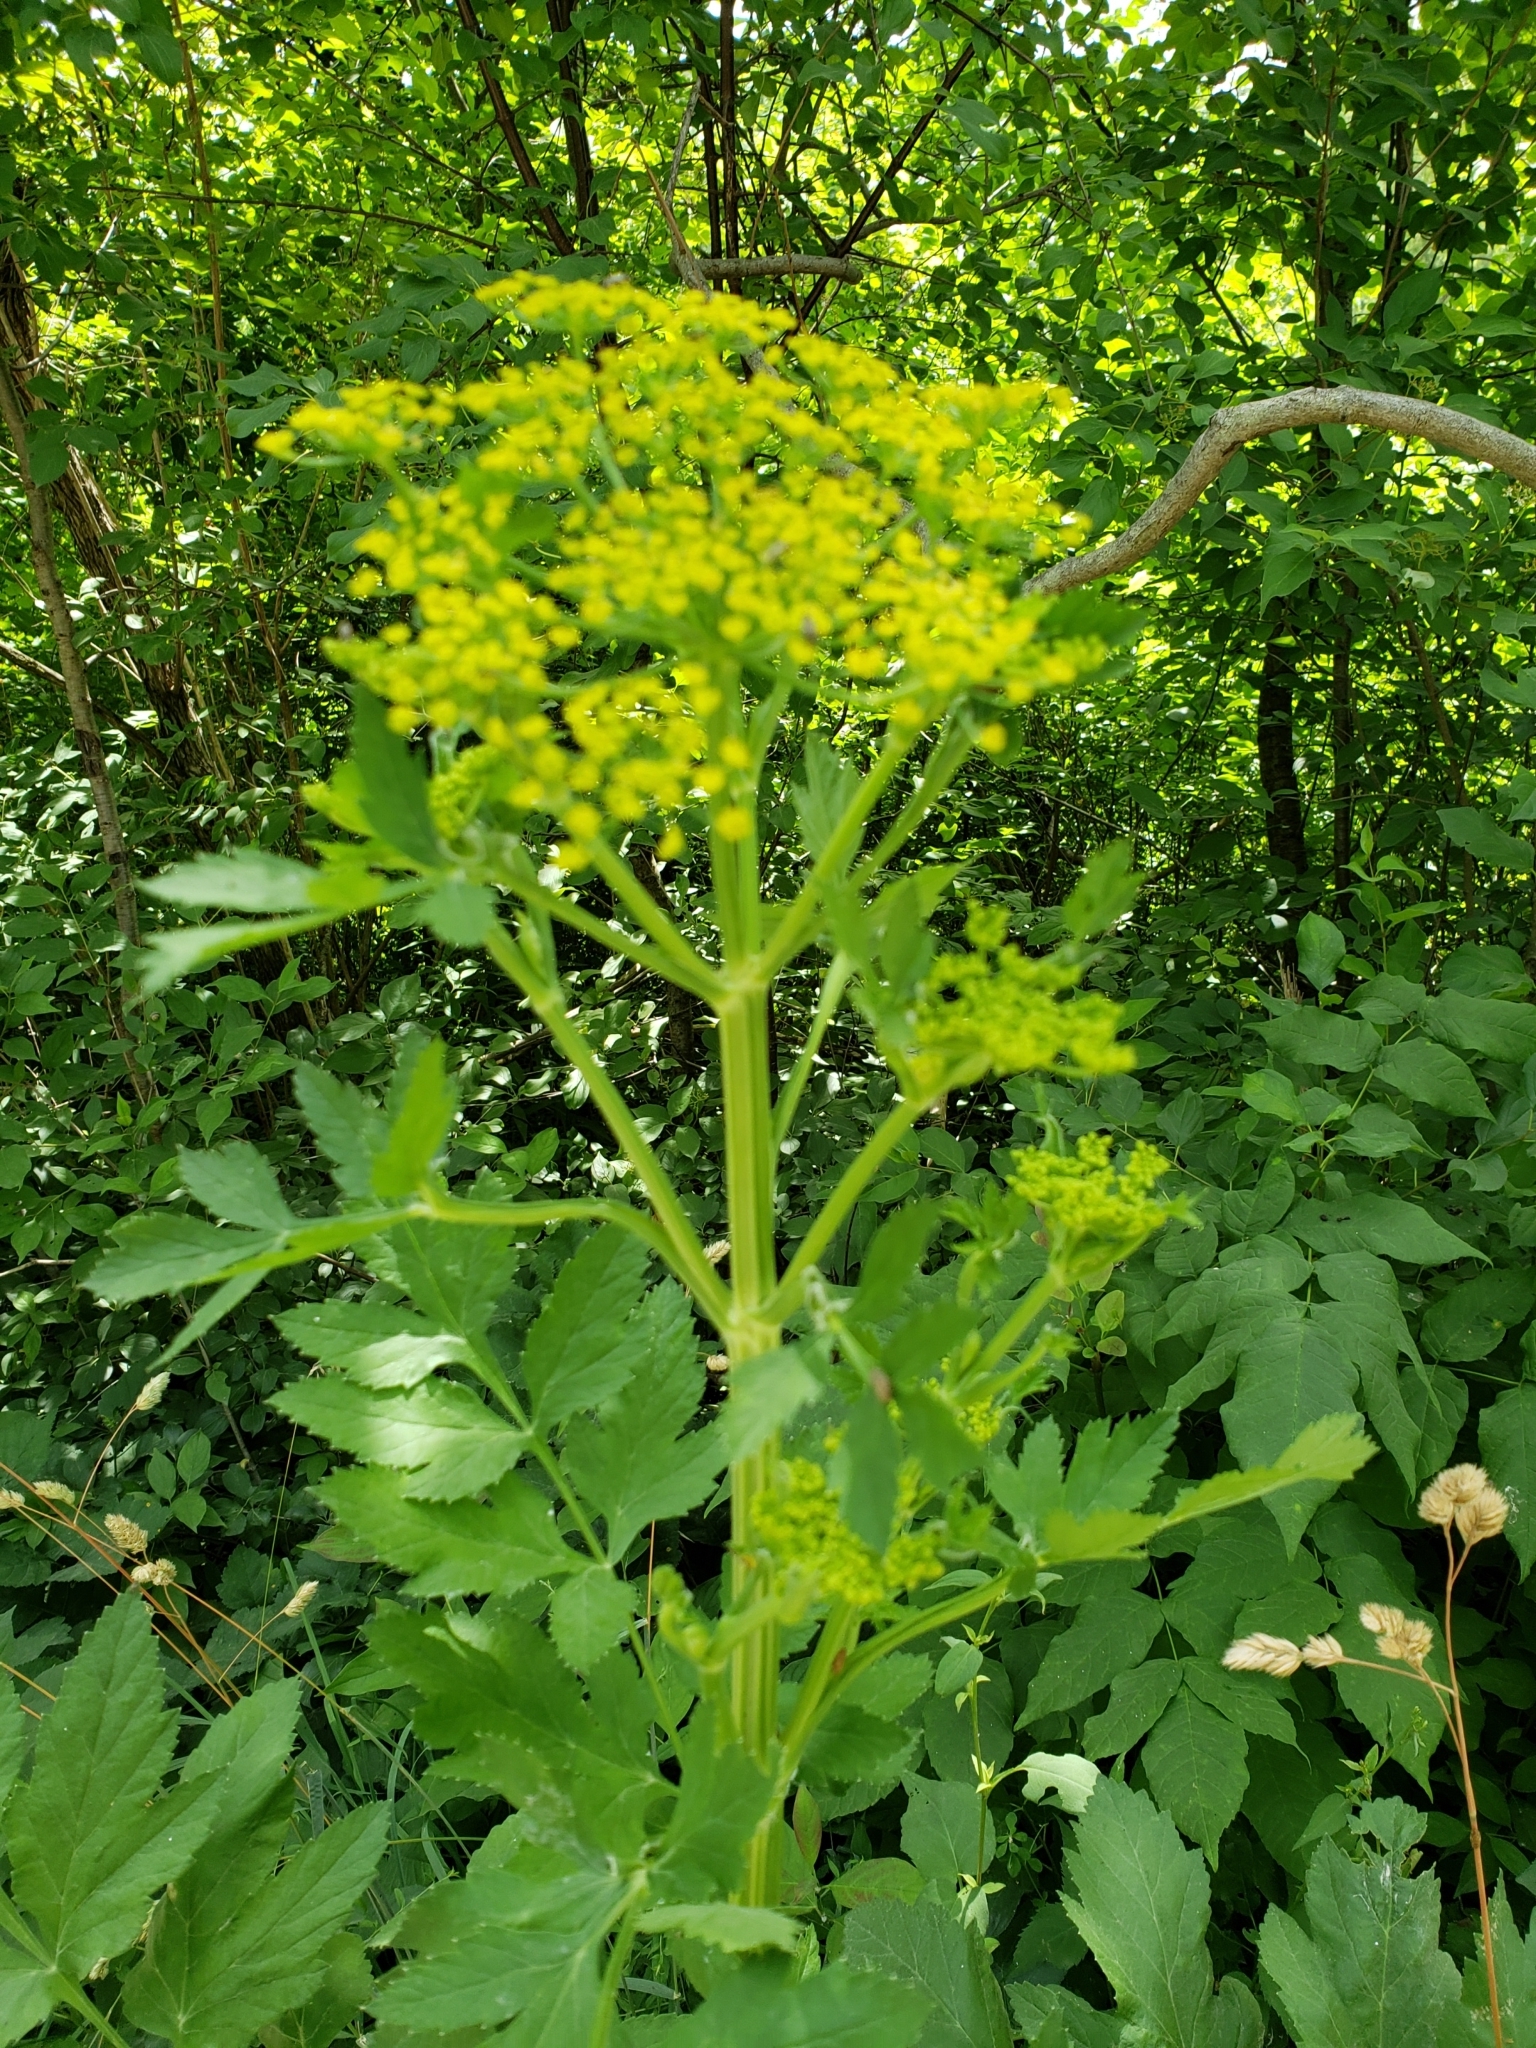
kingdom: Plantae
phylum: Tracheophyta
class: Magnoliopsida
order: Apiales
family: Apiaceae
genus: Pastinaca
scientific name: Pastinaca sativa
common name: Wild parsnip
